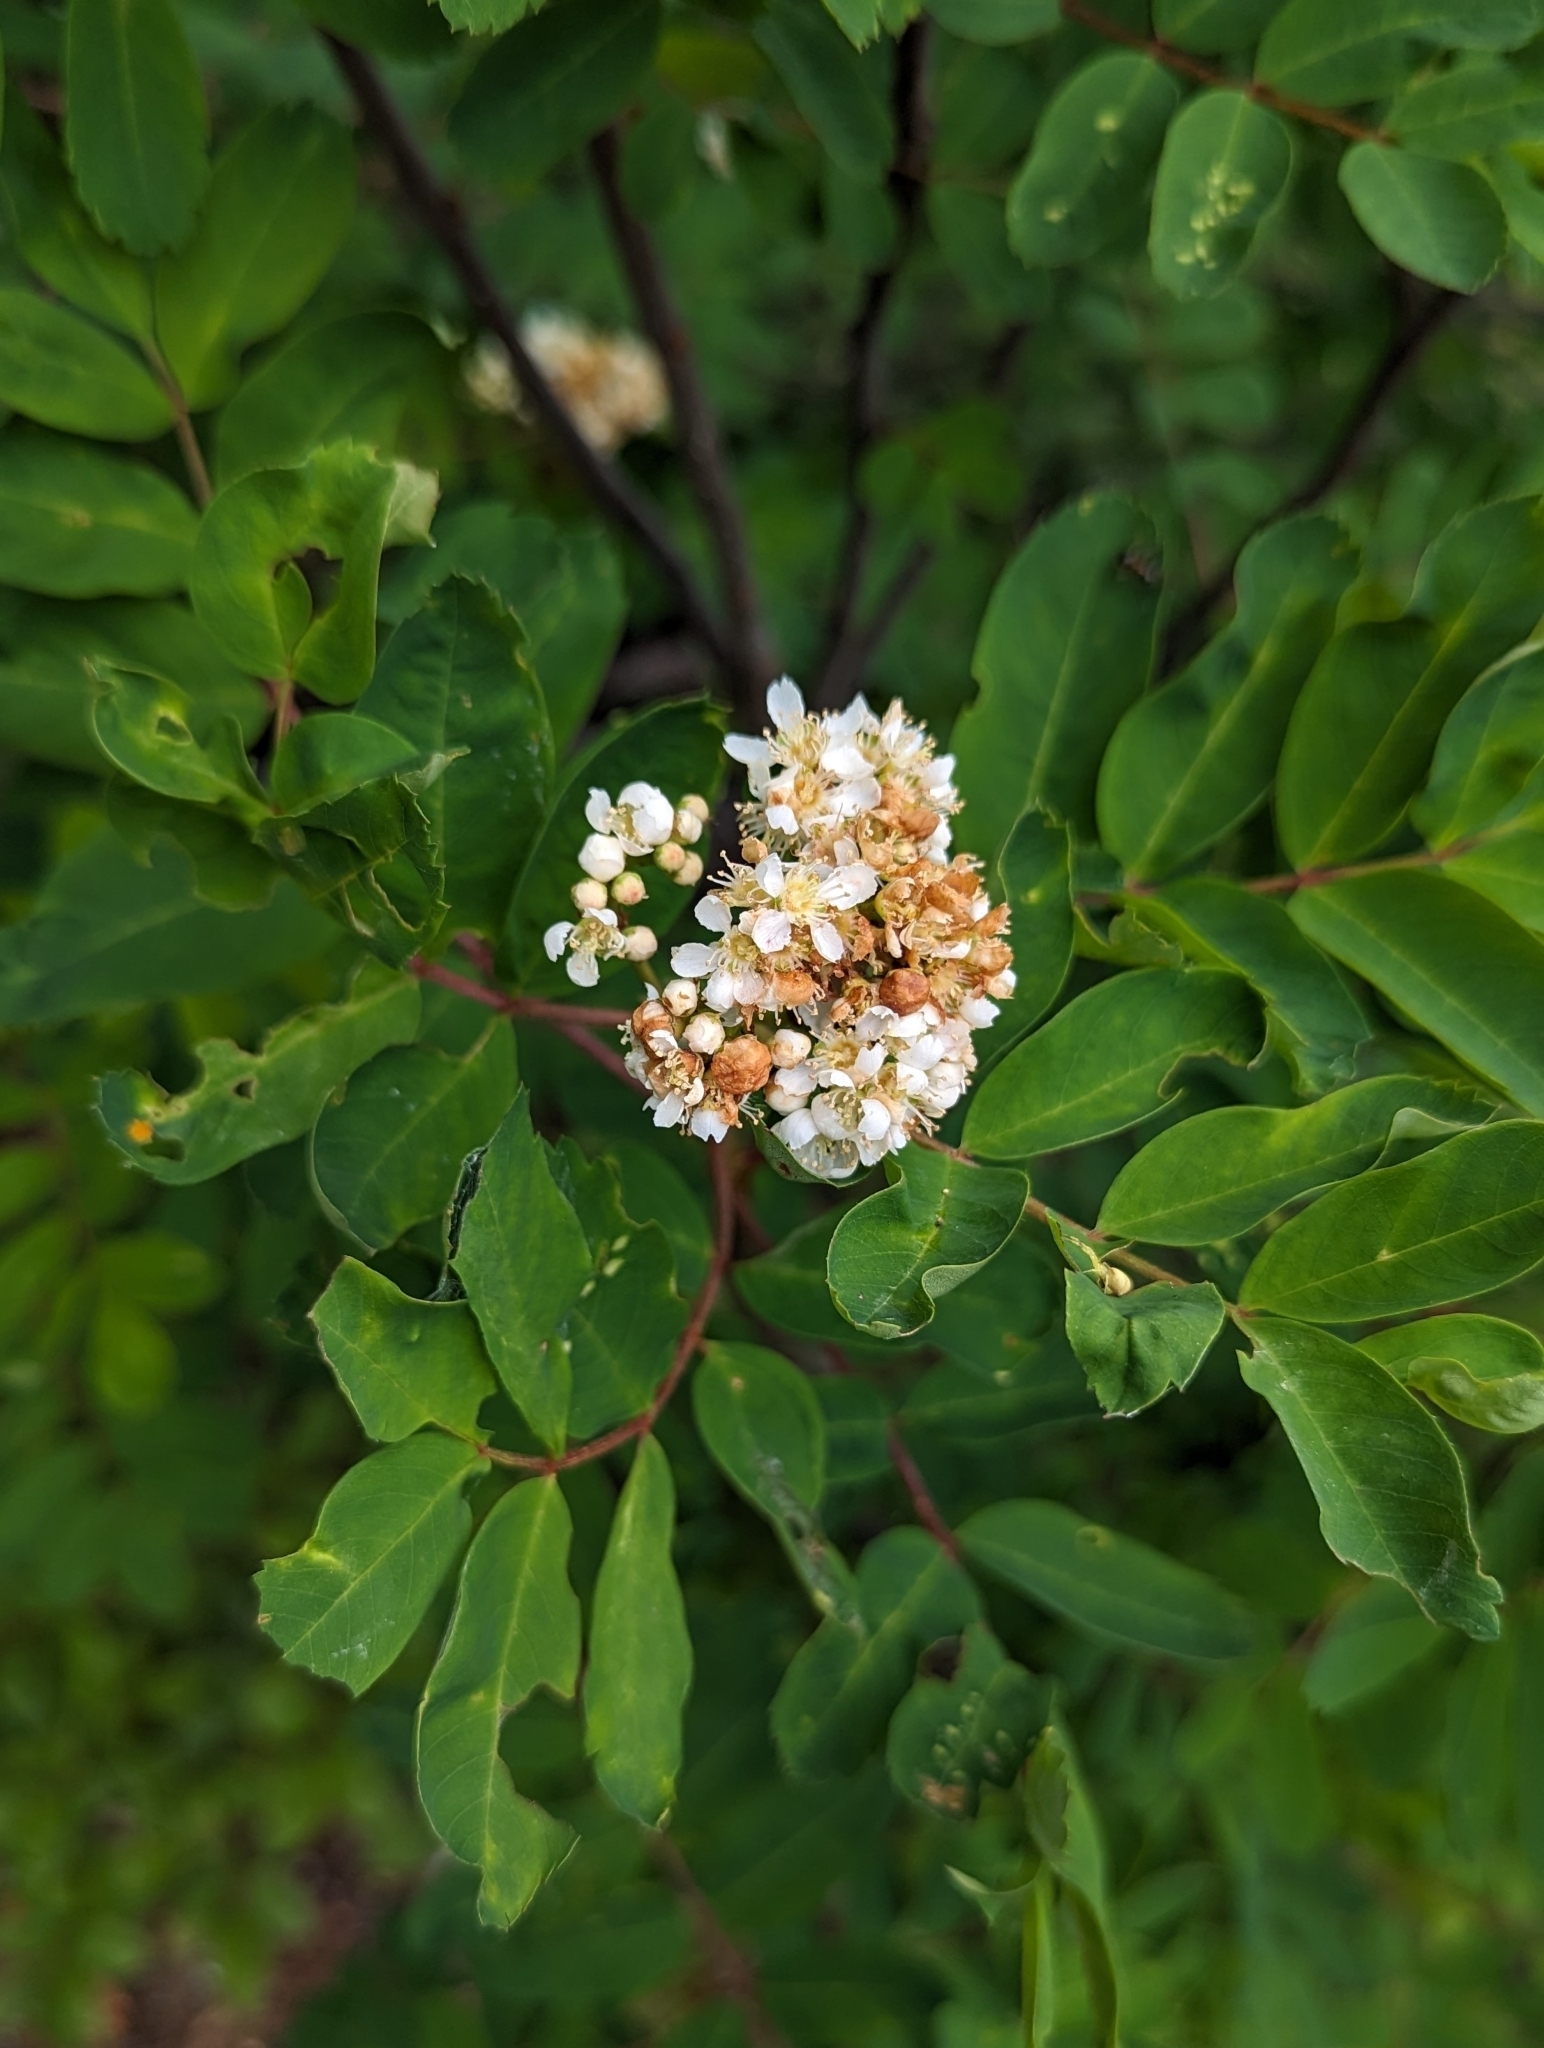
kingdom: Plantae
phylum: Tracheophyta
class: Magnoliopsida
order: Rosales
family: Rosaceae
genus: Sorbus
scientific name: Sorbus sitchensis
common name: Sitka mountain-ash
